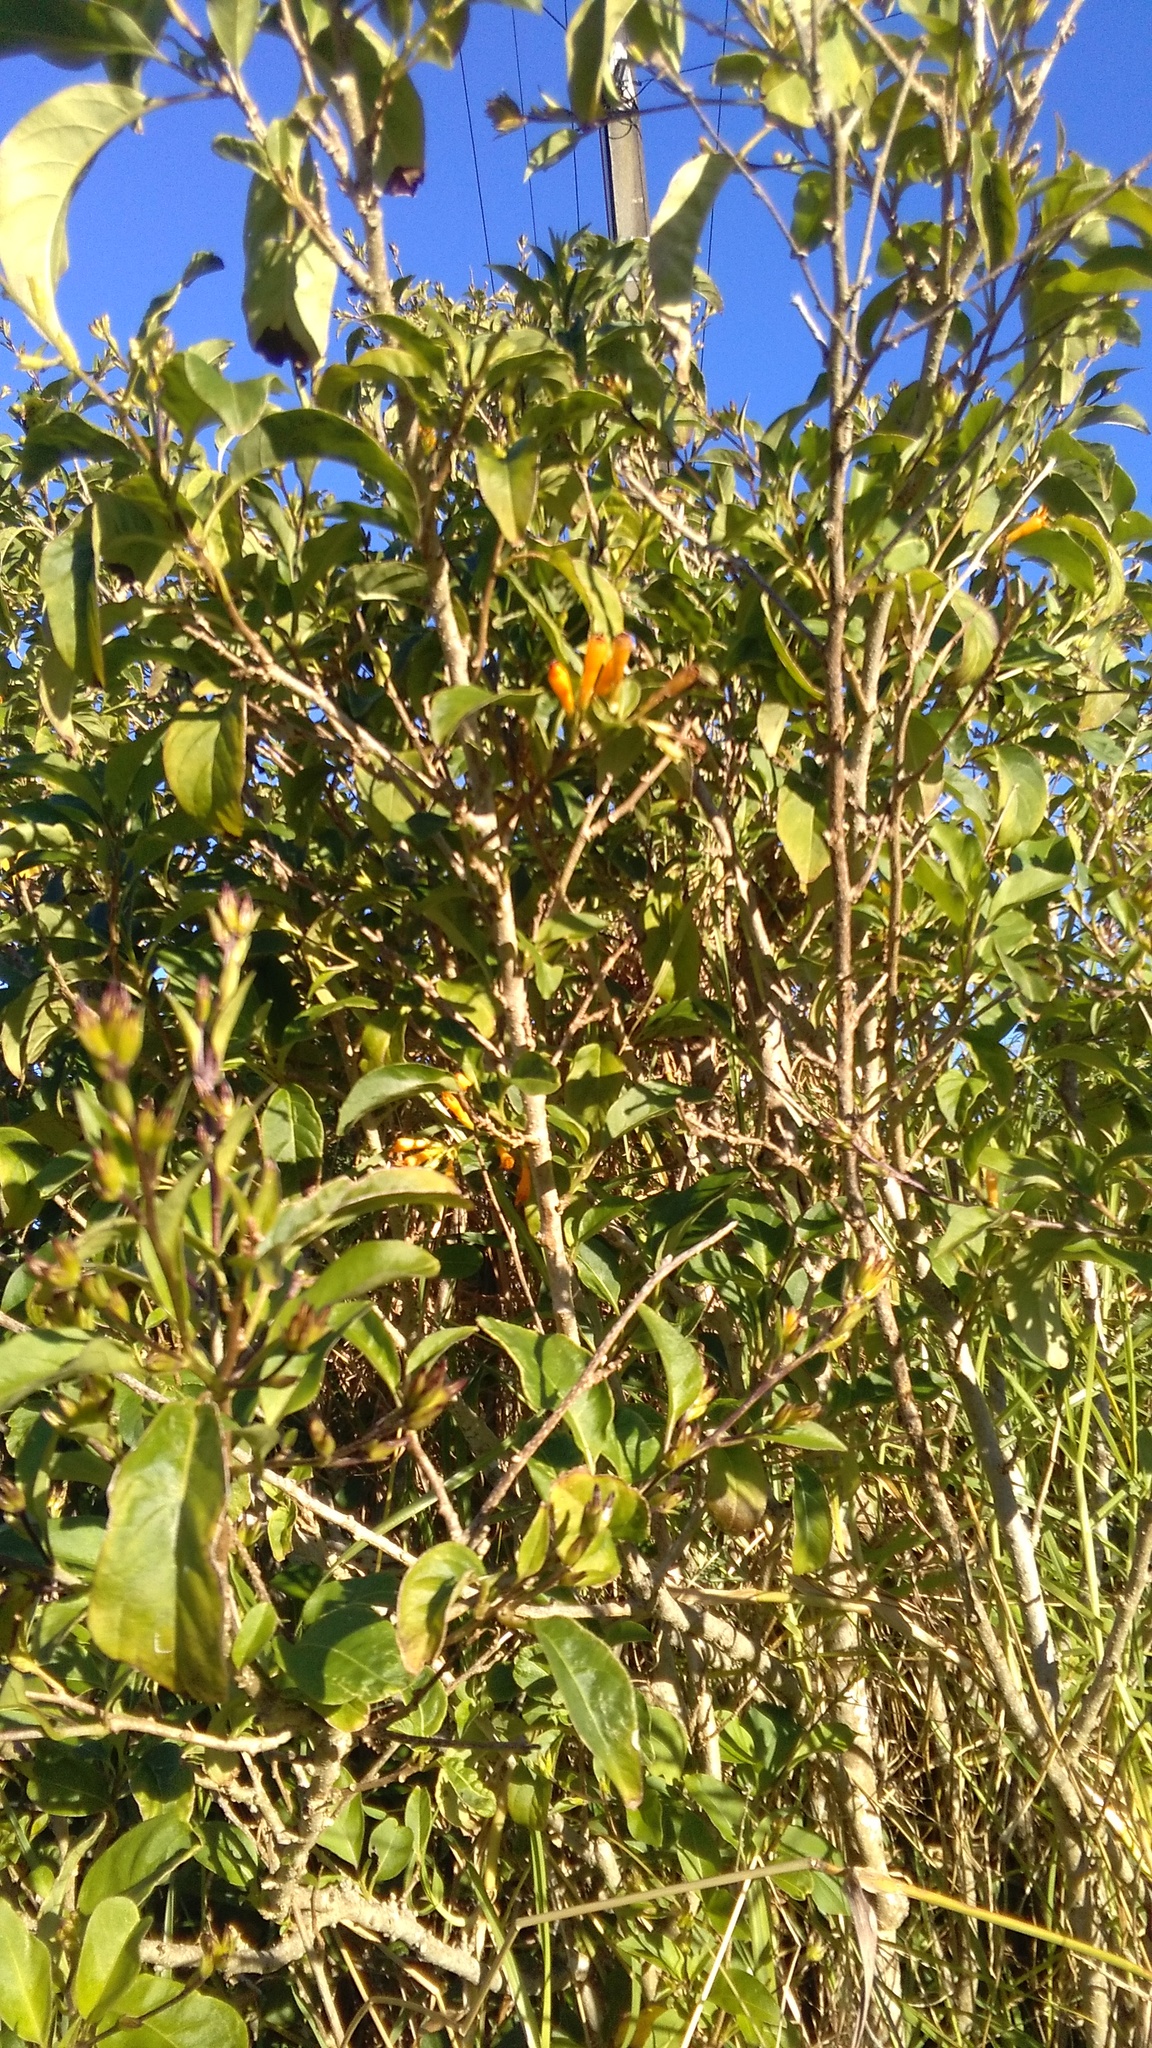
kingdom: Plantae
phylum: Tracheophyta
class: Magnoliopsida
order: Solanales
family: Solanaceae
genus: Cestrum
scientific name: Cestrum aurantiacum
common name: Orange cestrum
